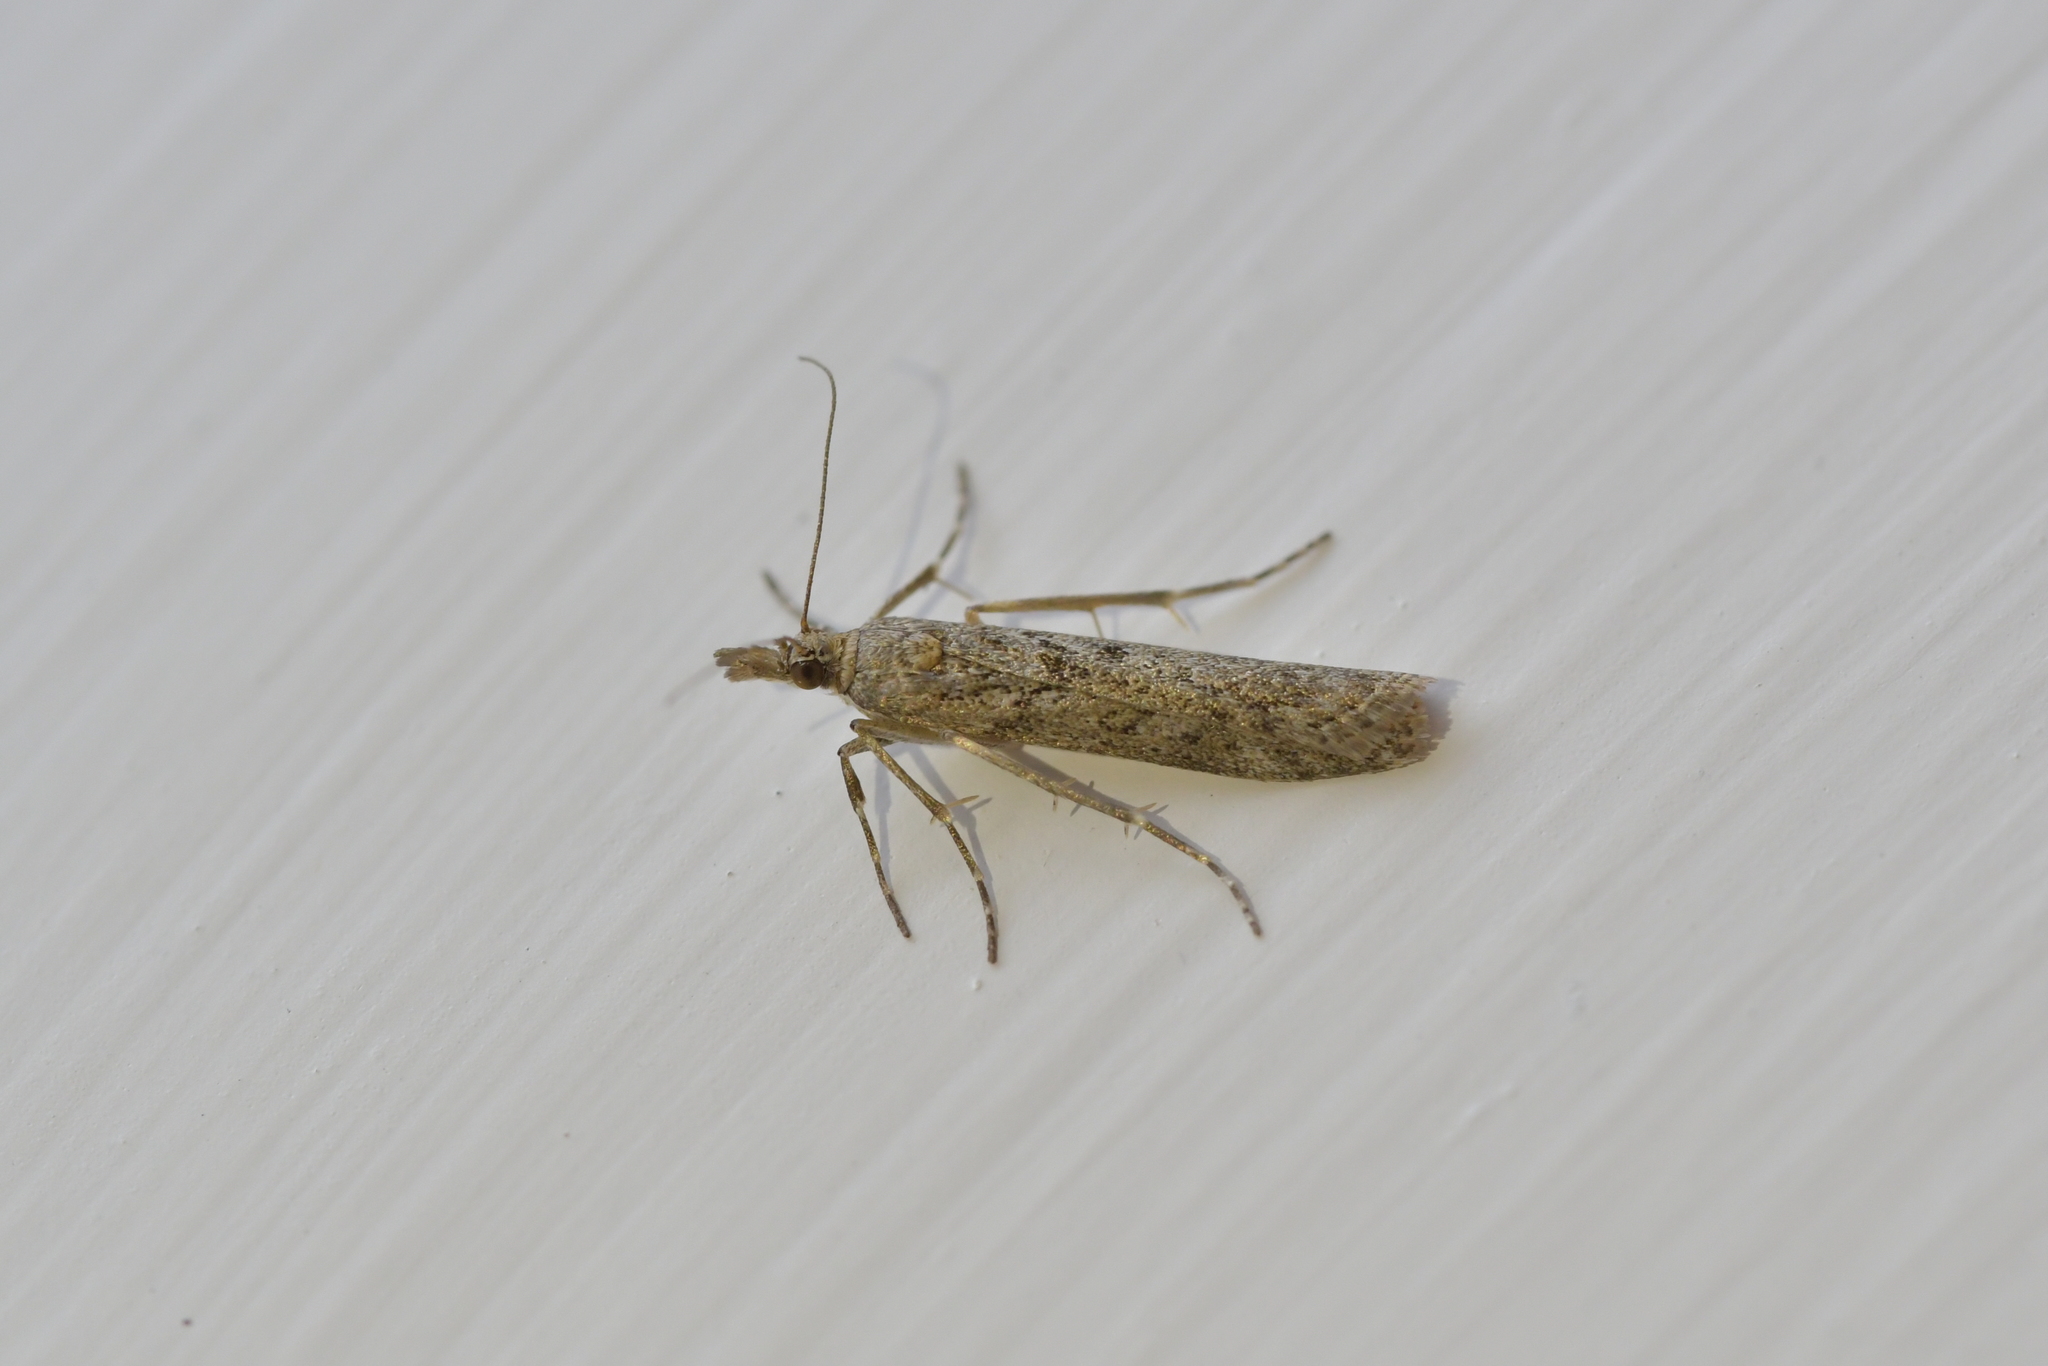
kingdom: Animalia
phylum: Arthropoda
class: Insecta
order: Lepidoptera
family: Crambidae
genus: Eudonia
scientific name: Eudonia leptalea
